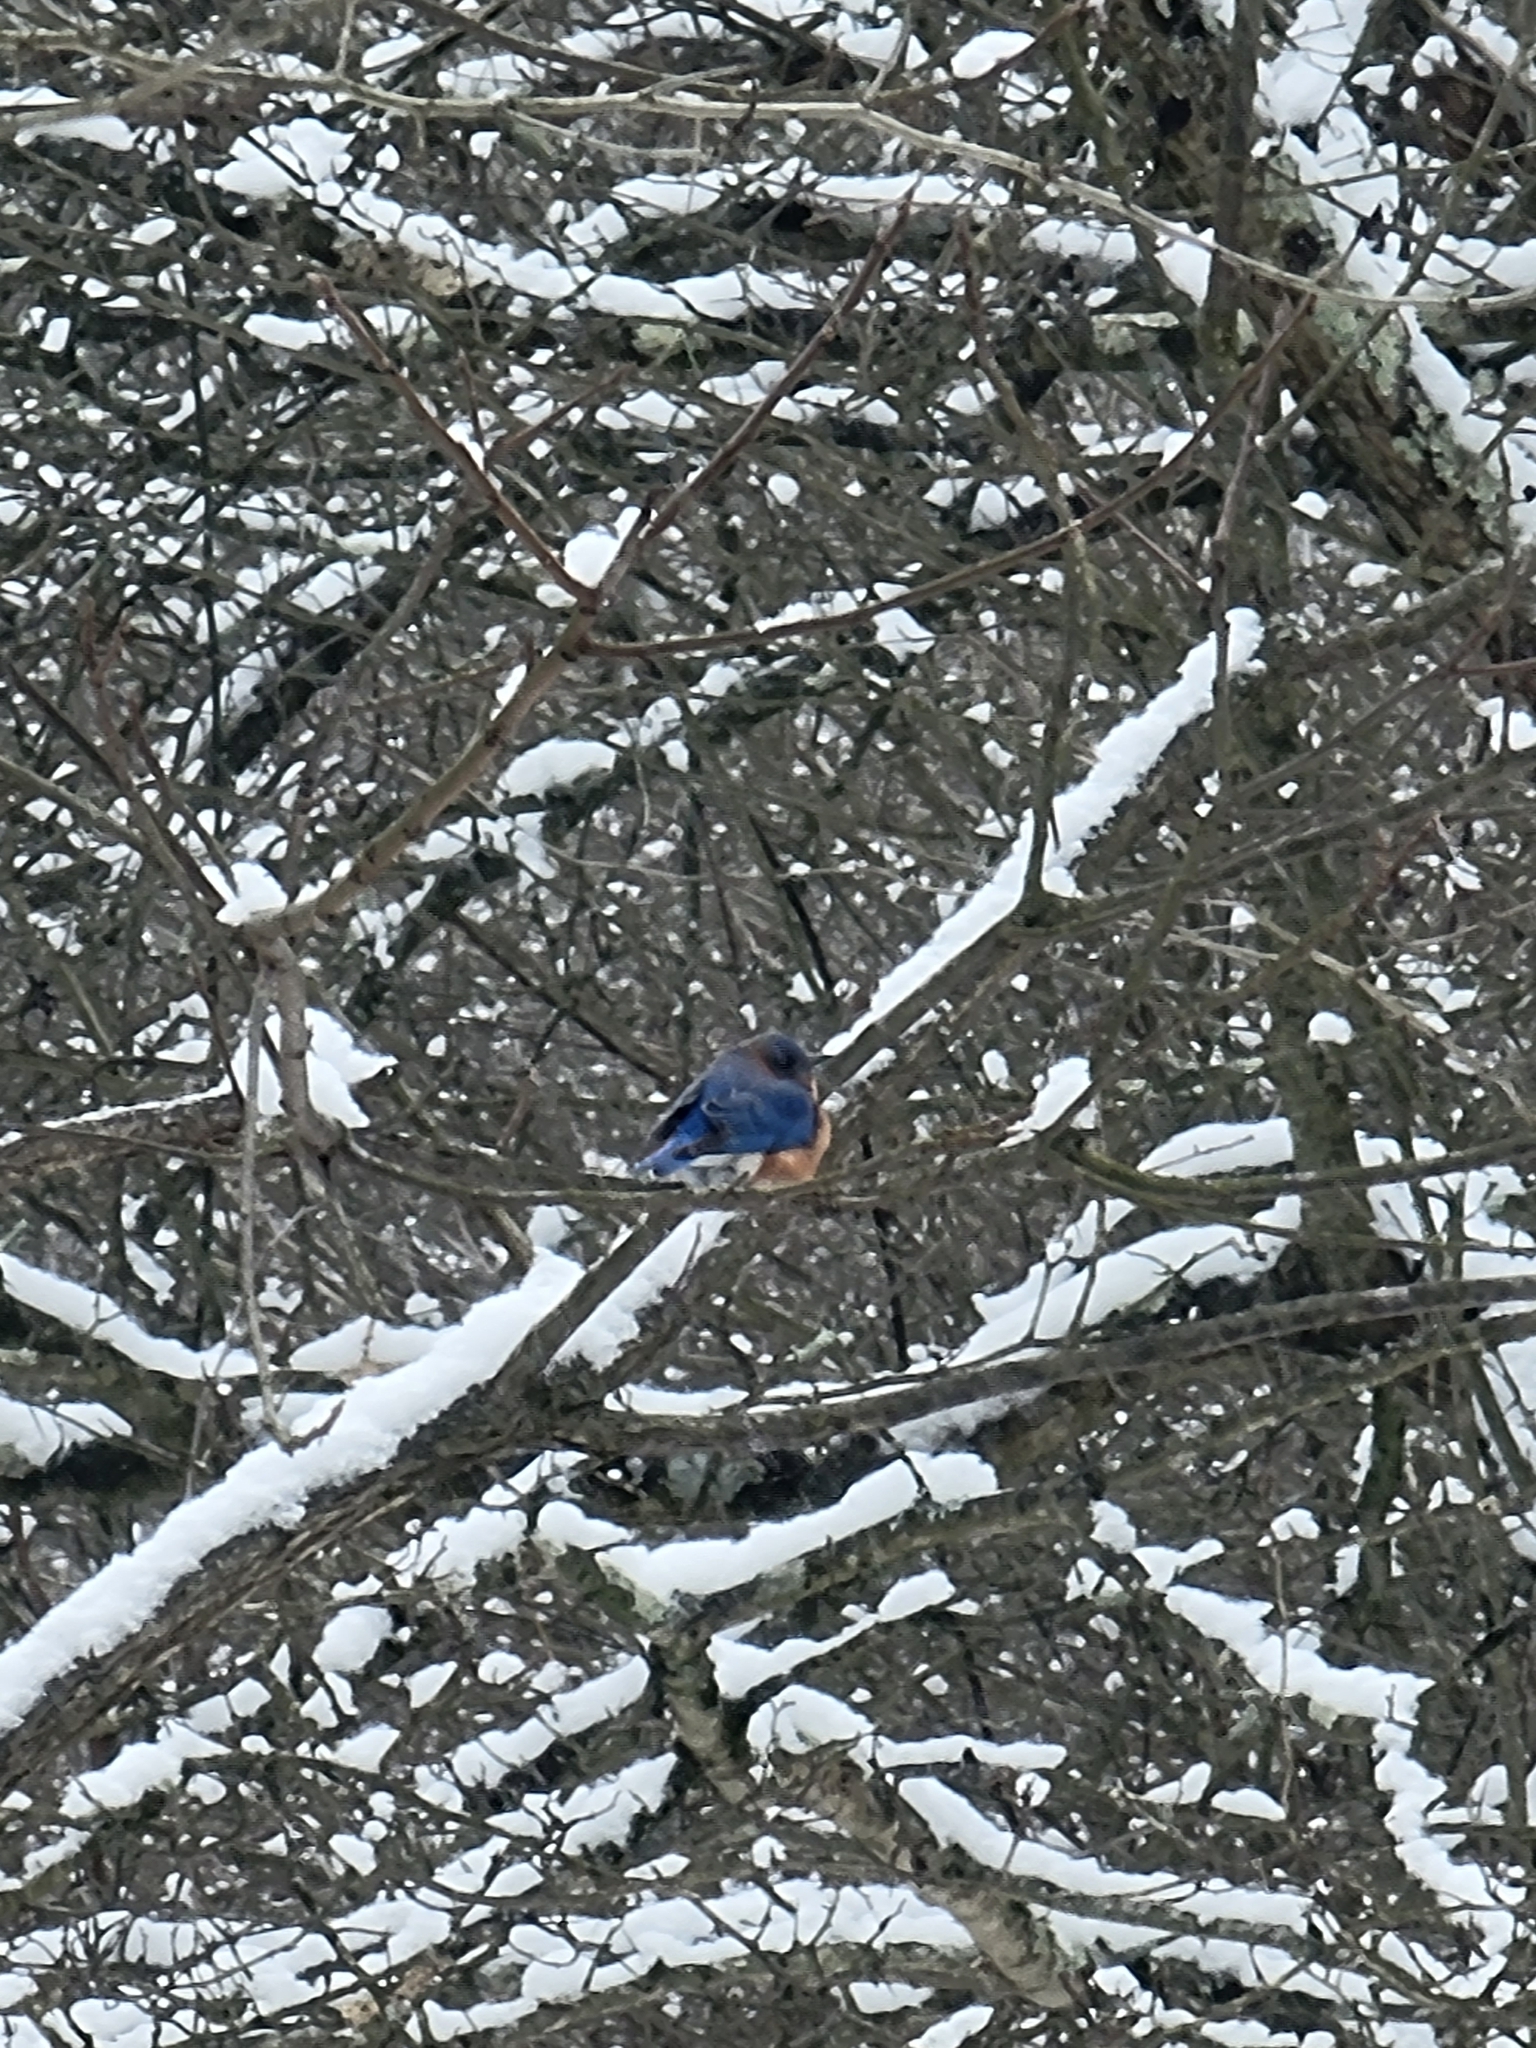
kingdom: Animalia
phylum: Chordata
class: Aves
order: Passeriformes
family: Turdidae
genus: Sialia
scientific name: Sialia sialis
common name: Eastern bluebird
